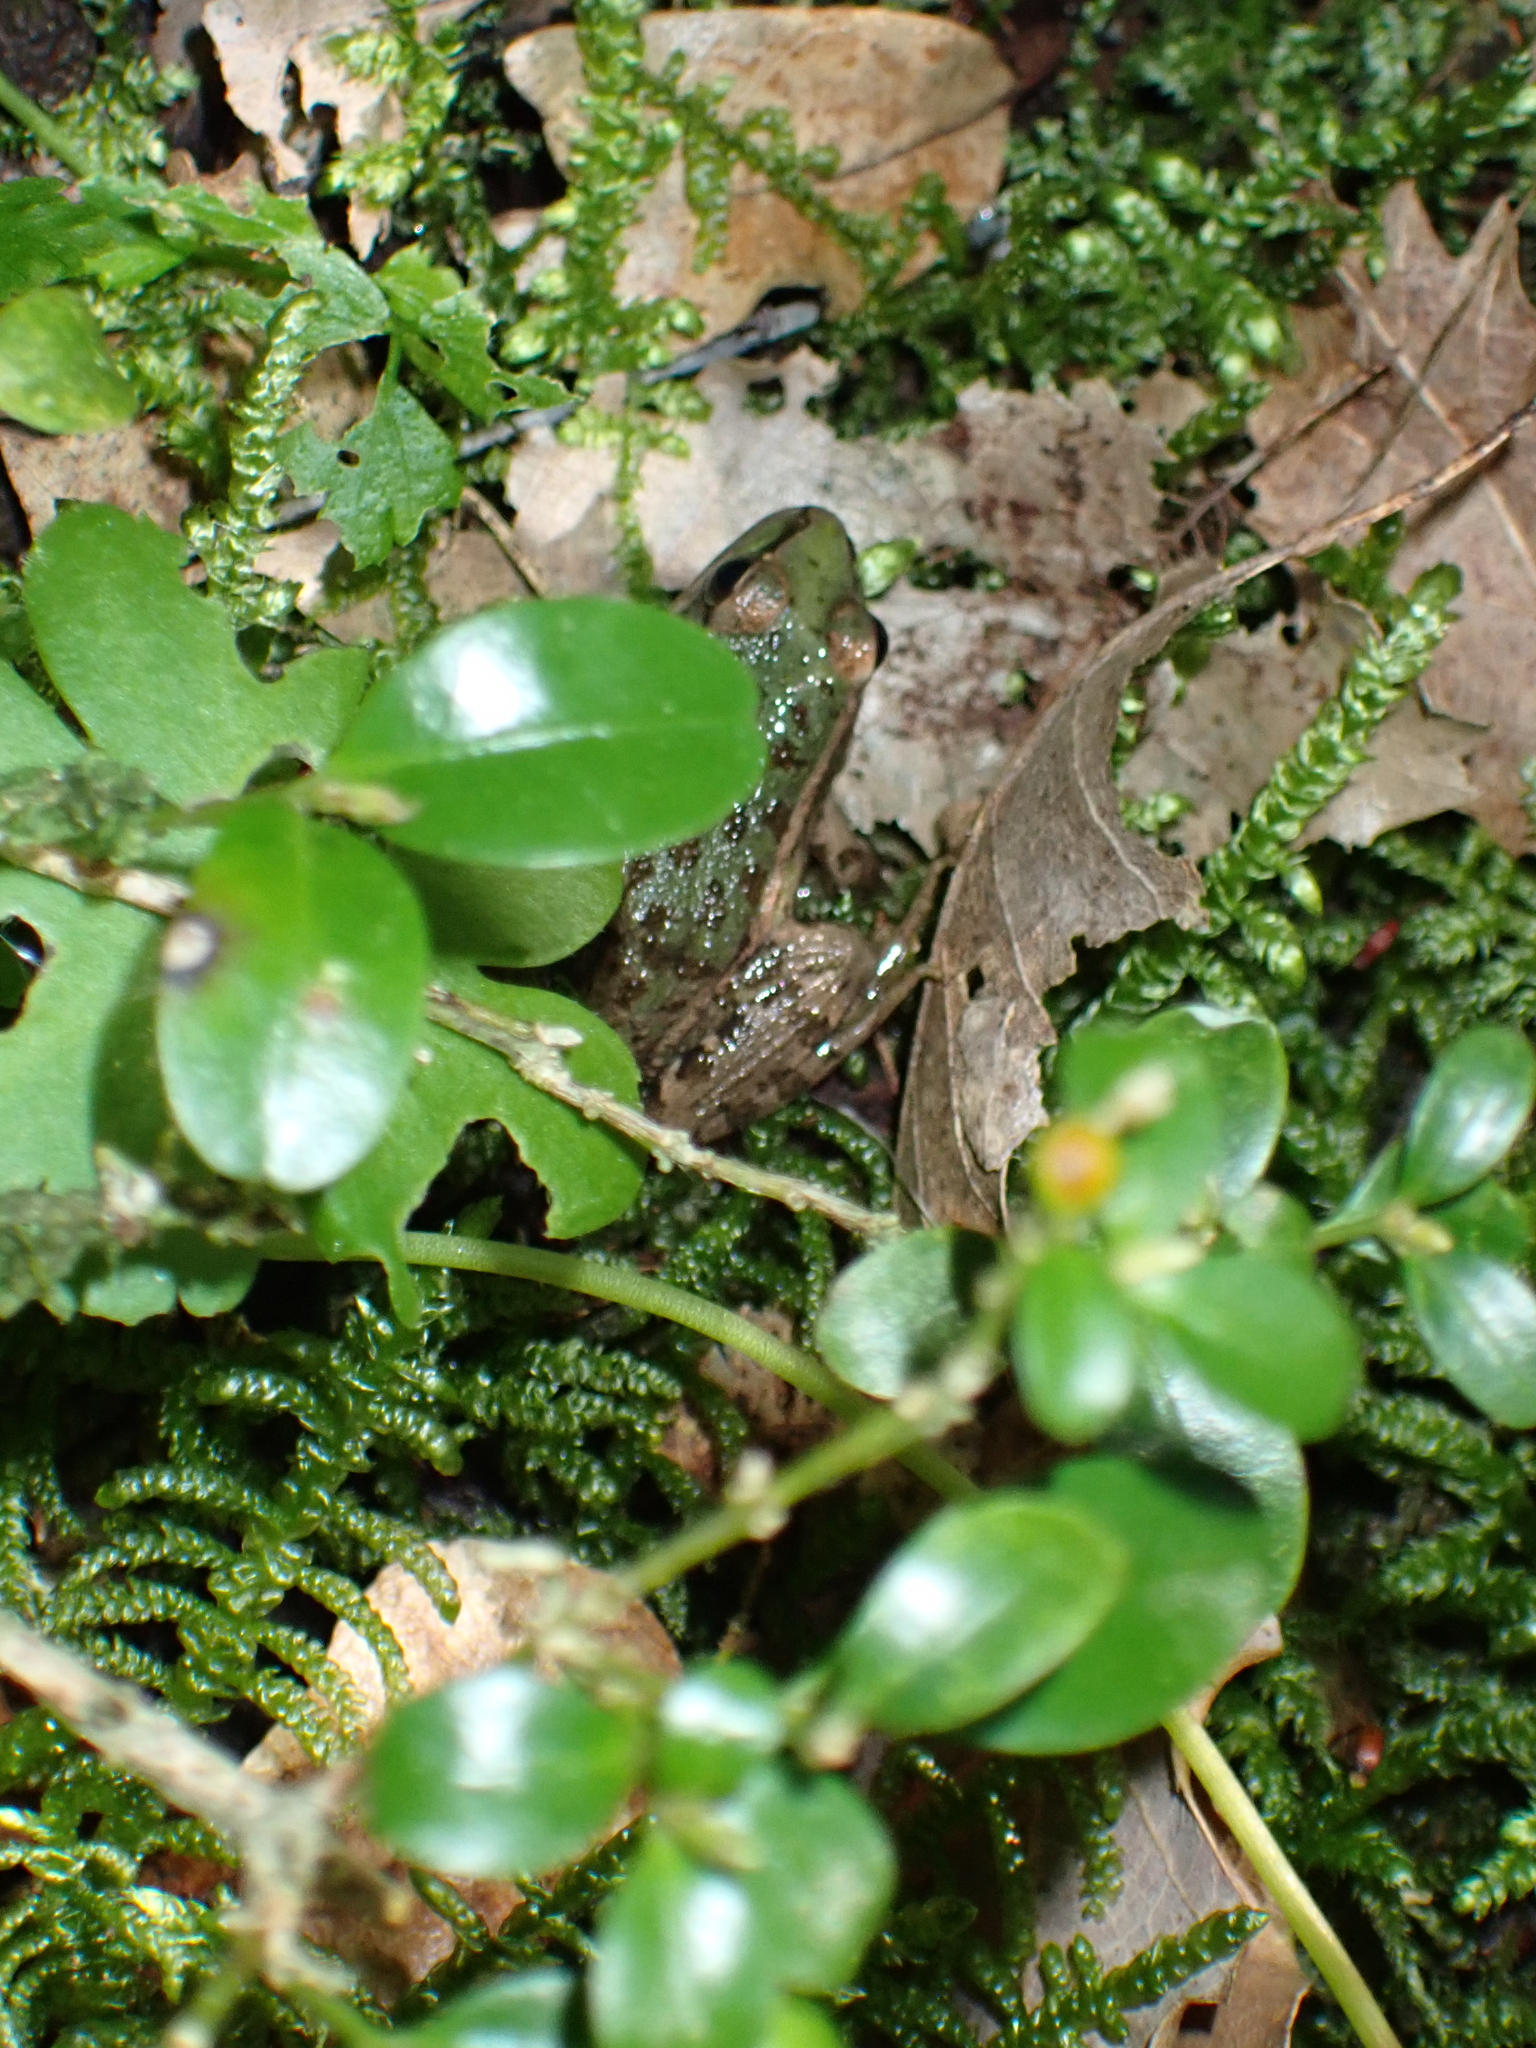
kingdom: Animalia
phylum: Chordata
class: Amphibia
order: Anura
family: Ranidae
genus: Pelophylax
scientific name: Pelophylax perezi
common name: Perez's frog
